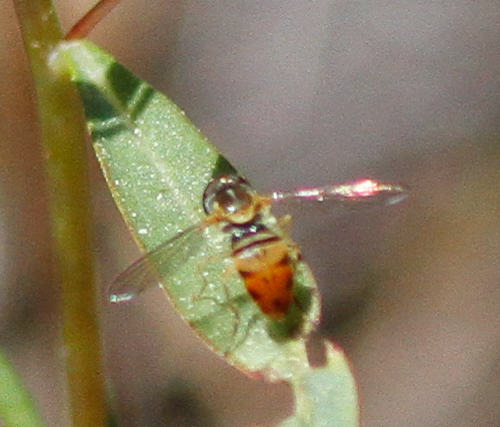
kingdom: Animalia
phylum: Arthropoda
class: Insecta
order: Diptera
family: Syrphidae
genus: Toxomerus
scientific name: Toxomerus marginatus
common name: Syrphid fly
